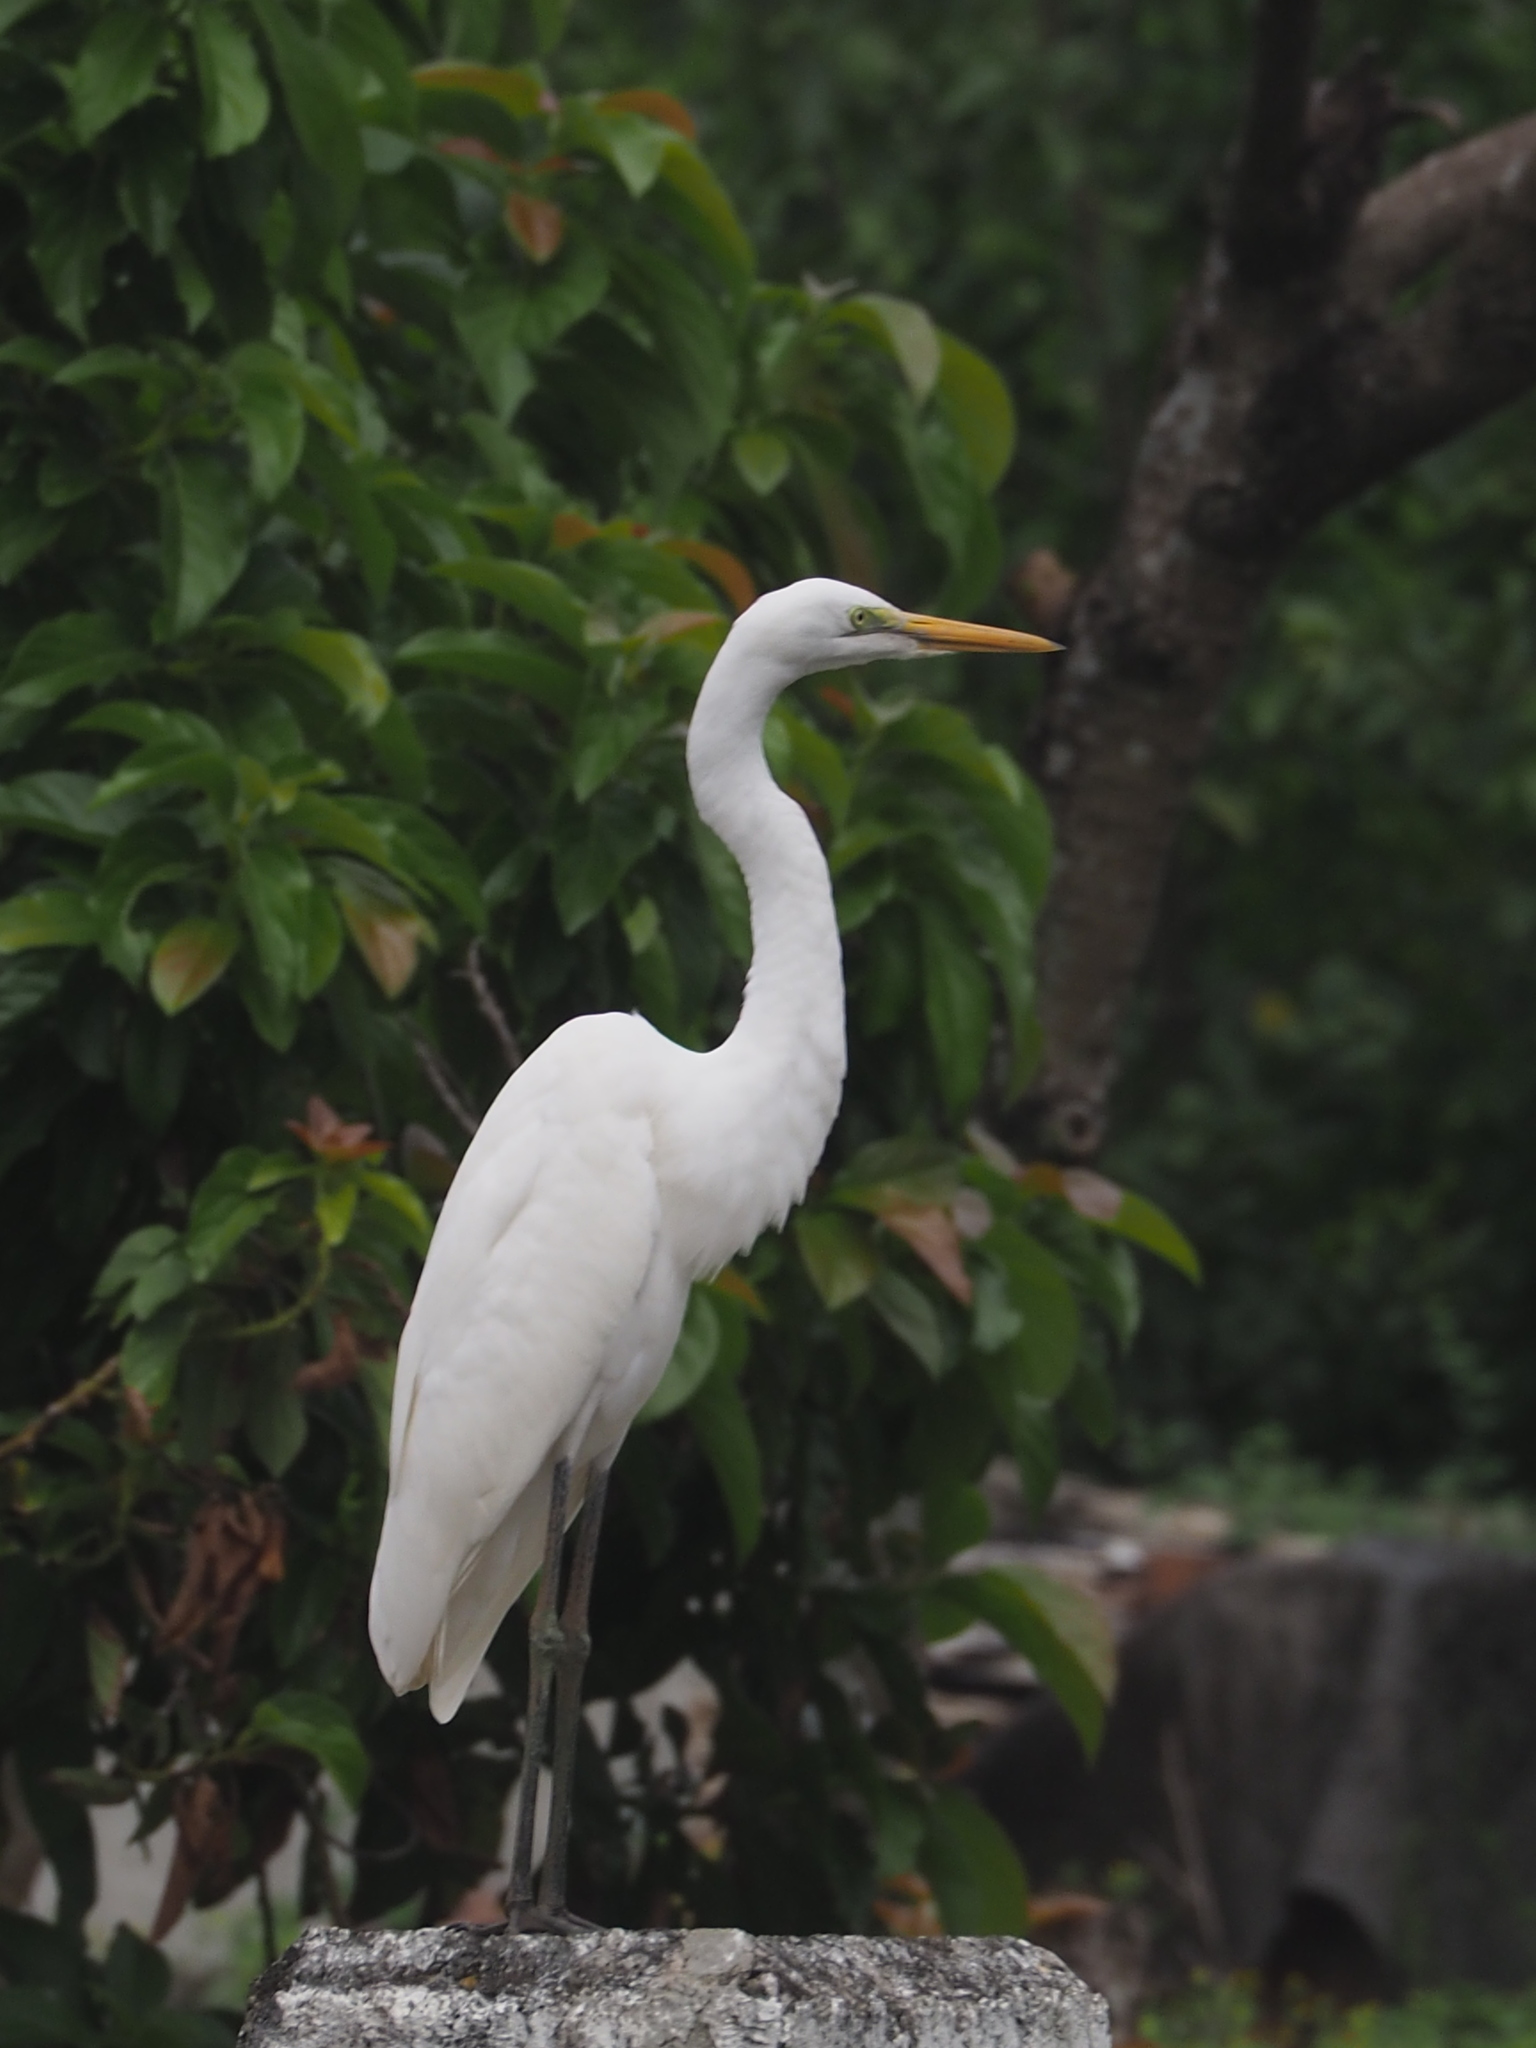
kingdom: Animalia
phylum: Chordata
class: Aves
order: Pelecaniformes
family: Ardeidae
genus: Ardea
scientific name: Ardea alba
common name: Great egret
